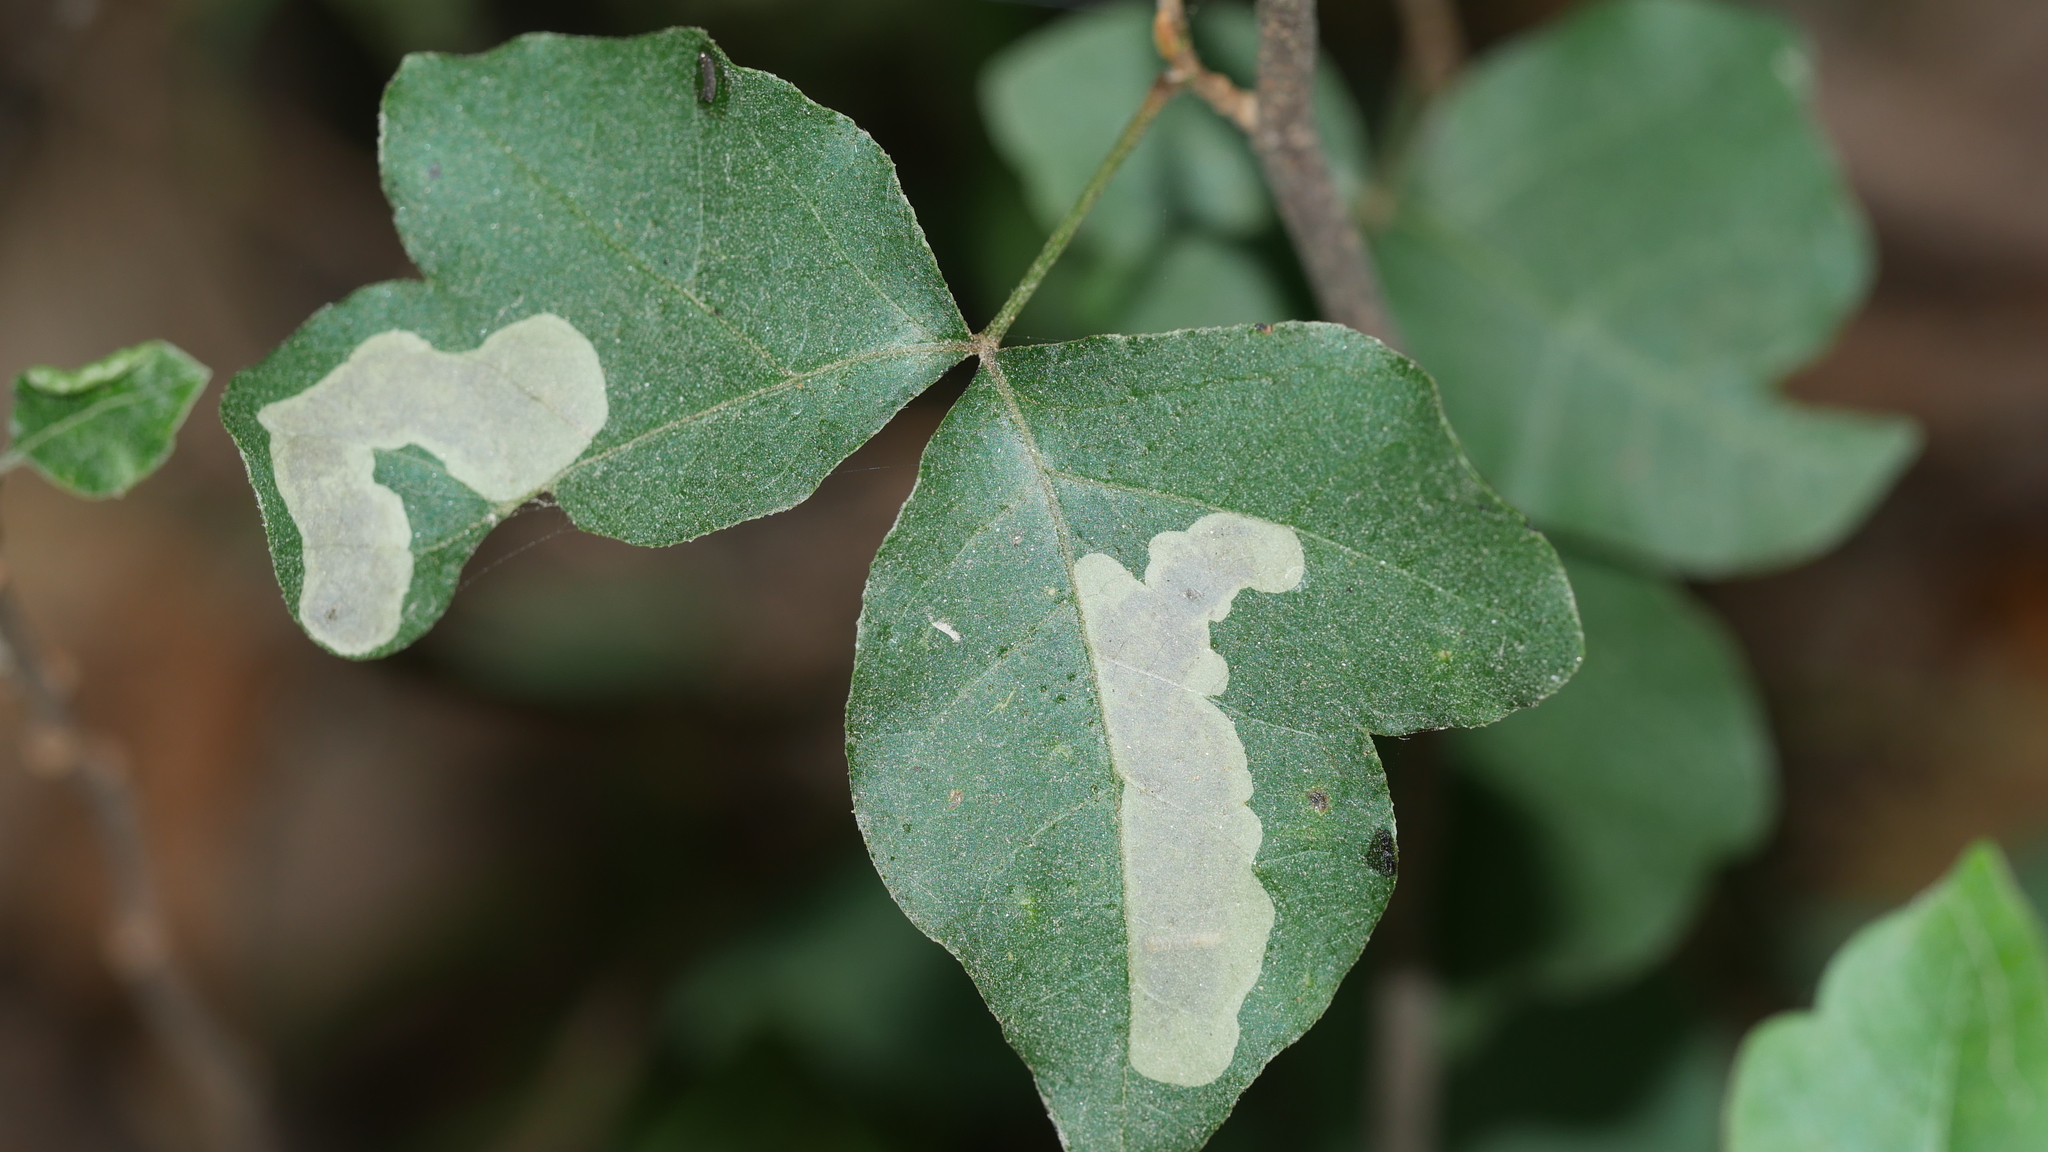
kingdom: Animalia
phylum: Arthropoda
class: Insecta
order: Lepidoptera
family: Gracillariidae
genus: Cameraria
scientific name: Cameraria guttifinitella
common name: Poison ivy leaf-miner moth
